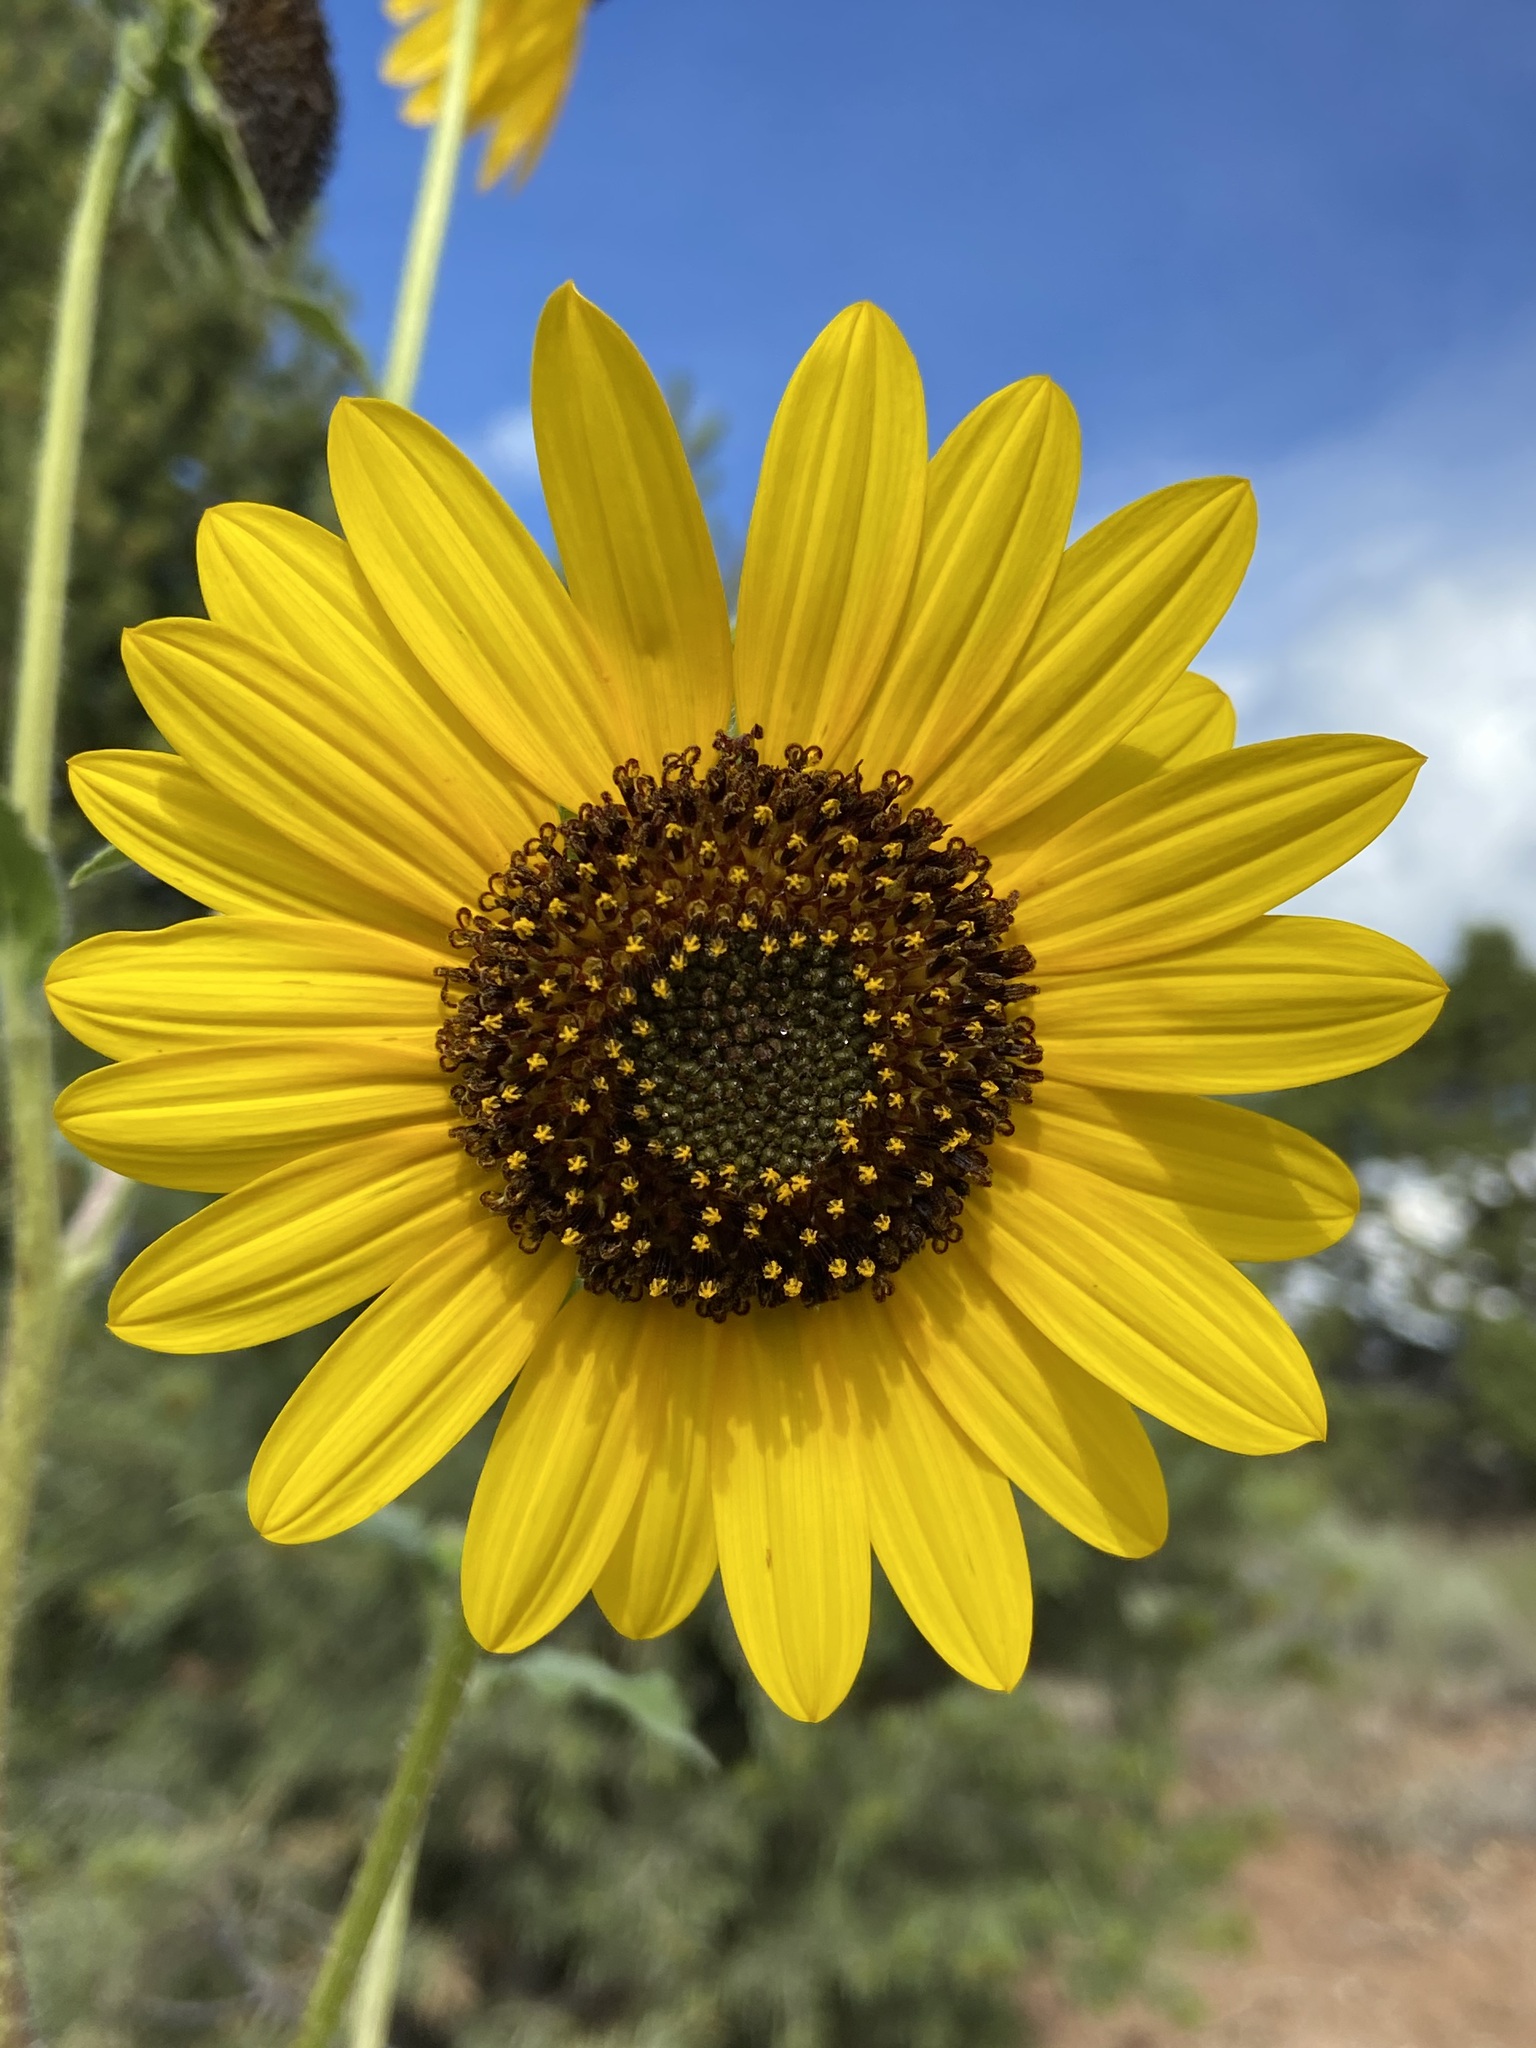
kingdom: Plantae
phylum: Tracheophyta
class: Magnoliopsida
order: Asterales
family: Asteraceae
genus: Helianthus
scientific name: Helianthus annuus
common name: Sunflower
